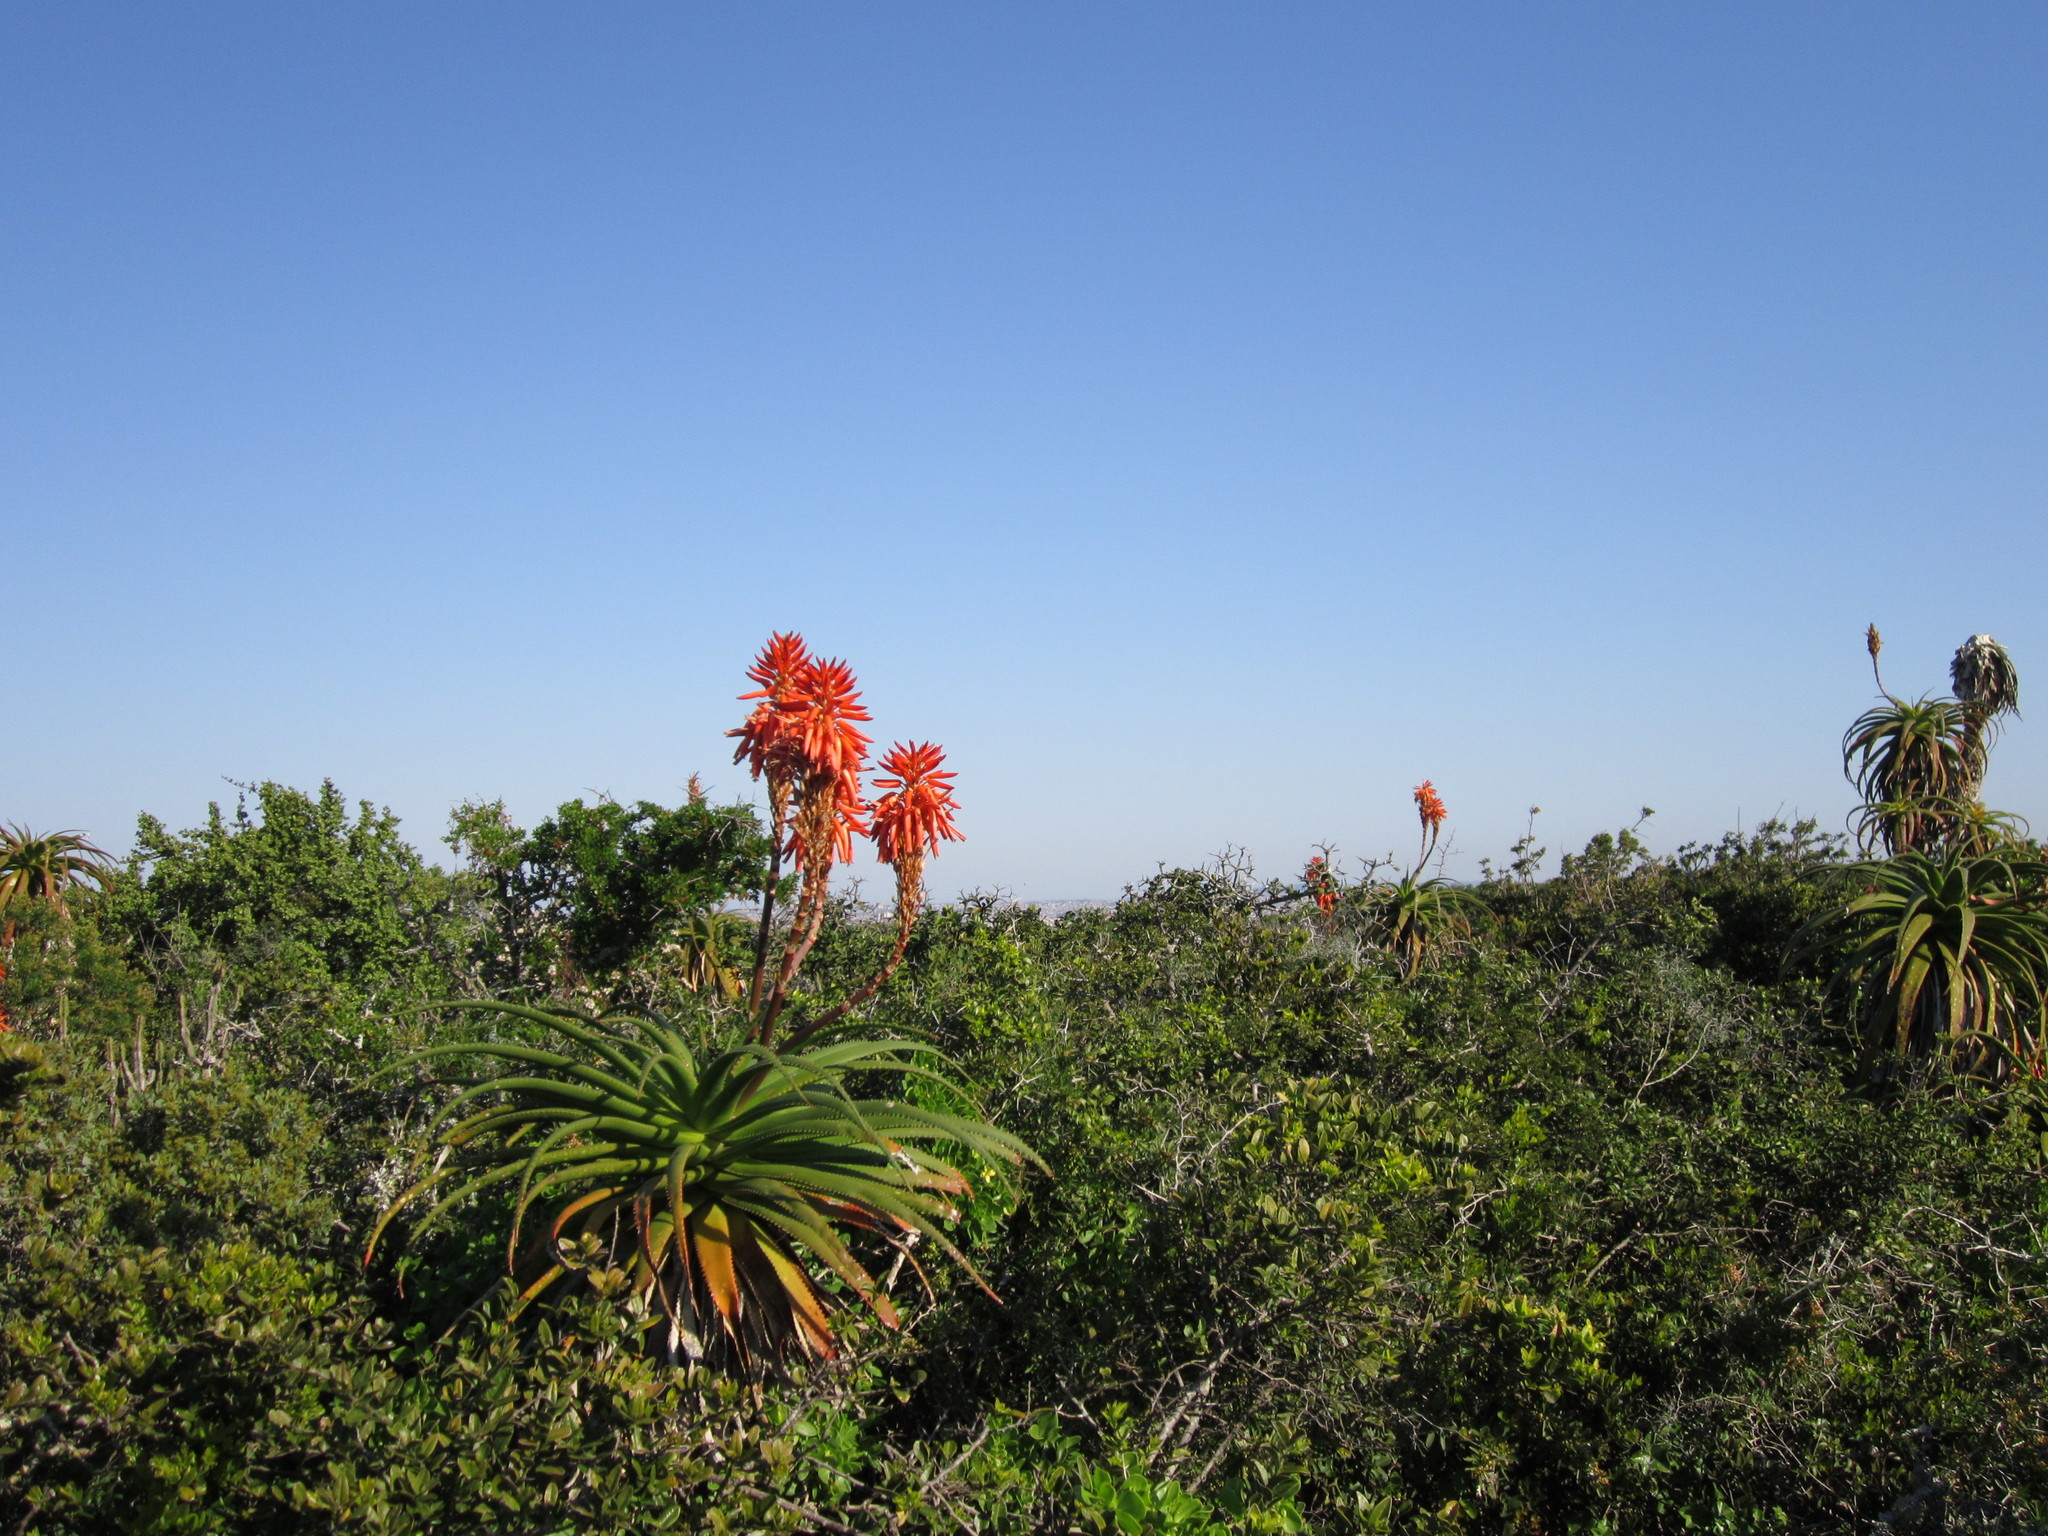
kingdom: Plantae
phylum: Tracheophyta
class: Liliopsida
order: Asparagales
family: Asphodelaceae
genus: Aloe
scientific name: Aloe pluridens
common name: French aloe
